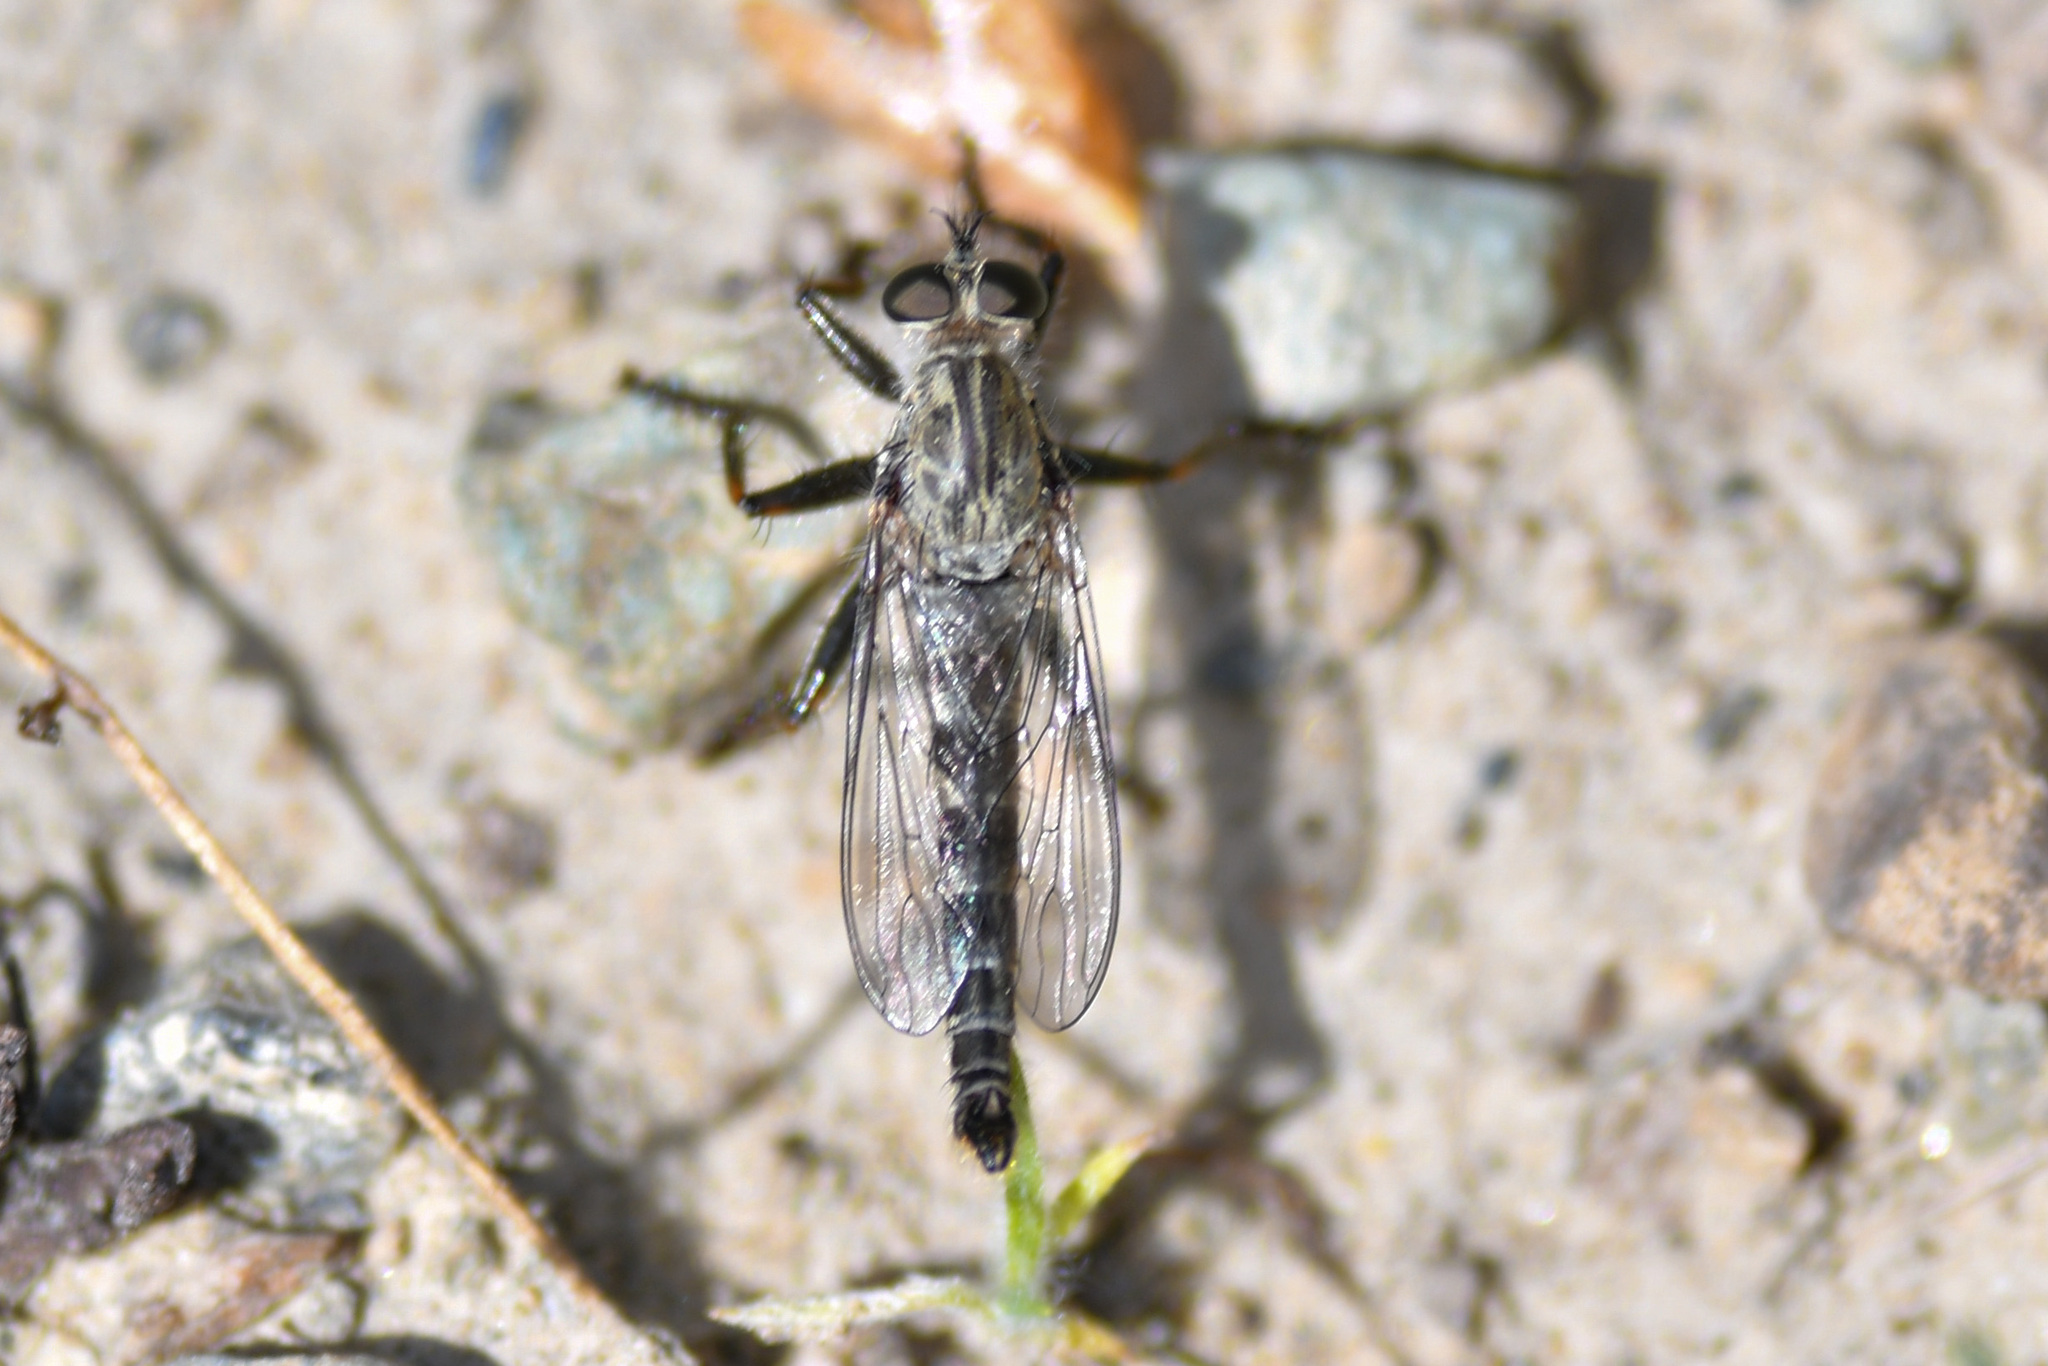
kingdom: Animalia
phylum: Arthropoda
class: Insecta
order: Diptera
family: Asilidae
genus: Machimus
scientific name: Machimus occidentalis
